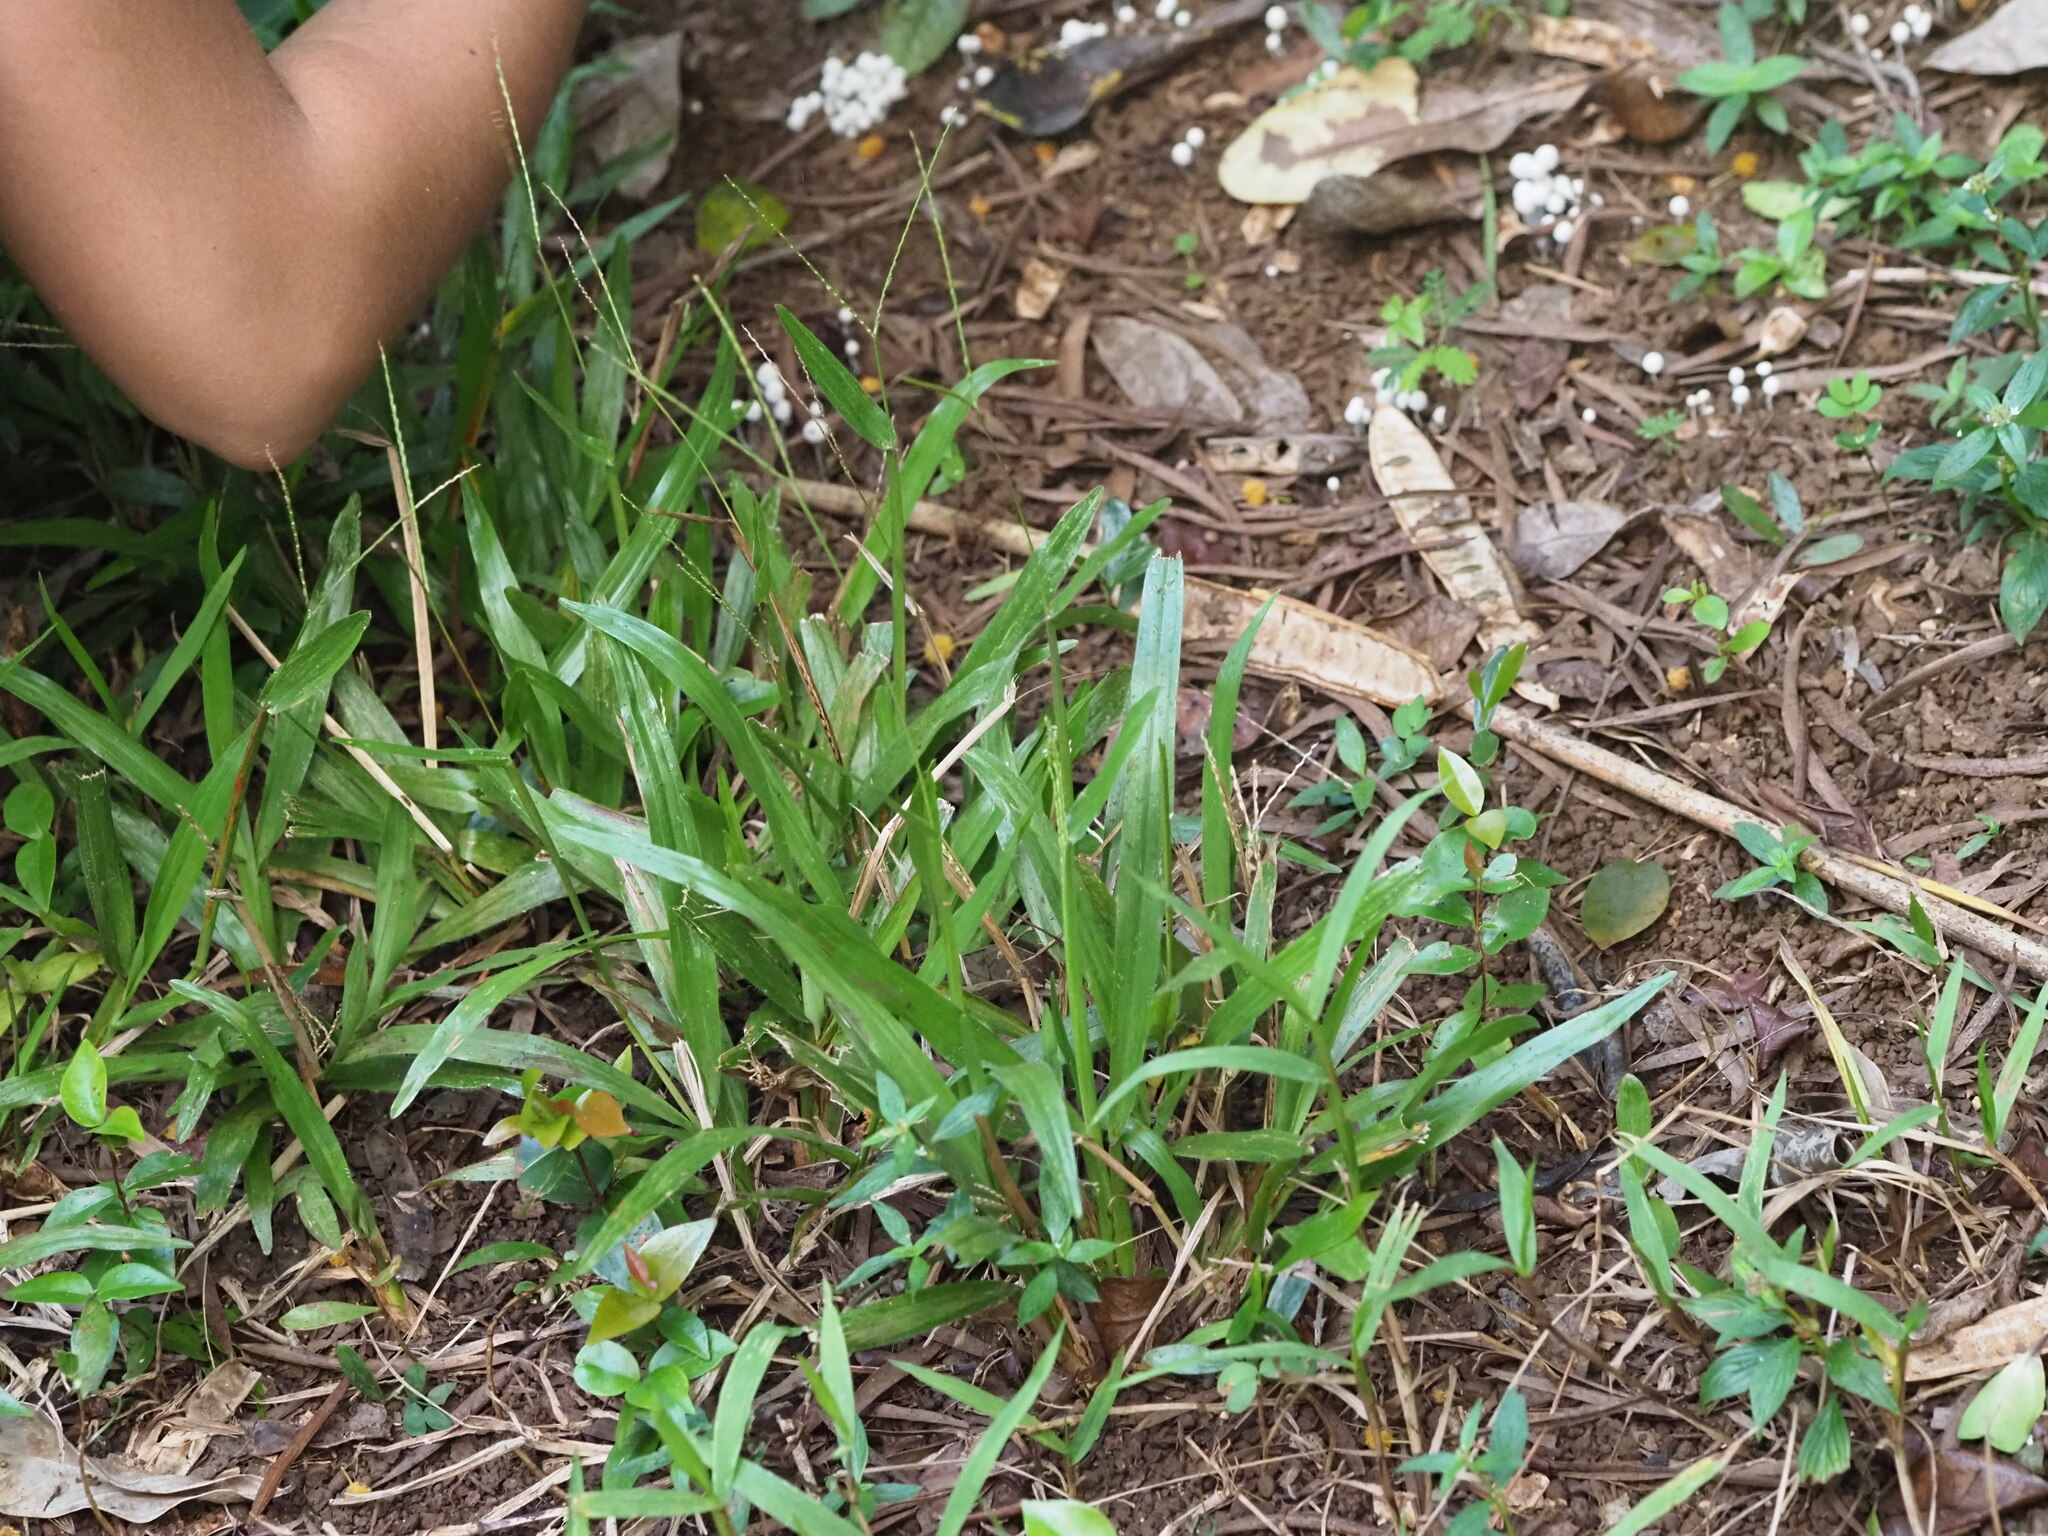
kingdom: Plantae
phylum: Tracheophyta
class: Liliopsida
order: Poales
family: Poaceae
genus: Axonopus
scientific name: Axonopus compressus
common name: American carpet grass
